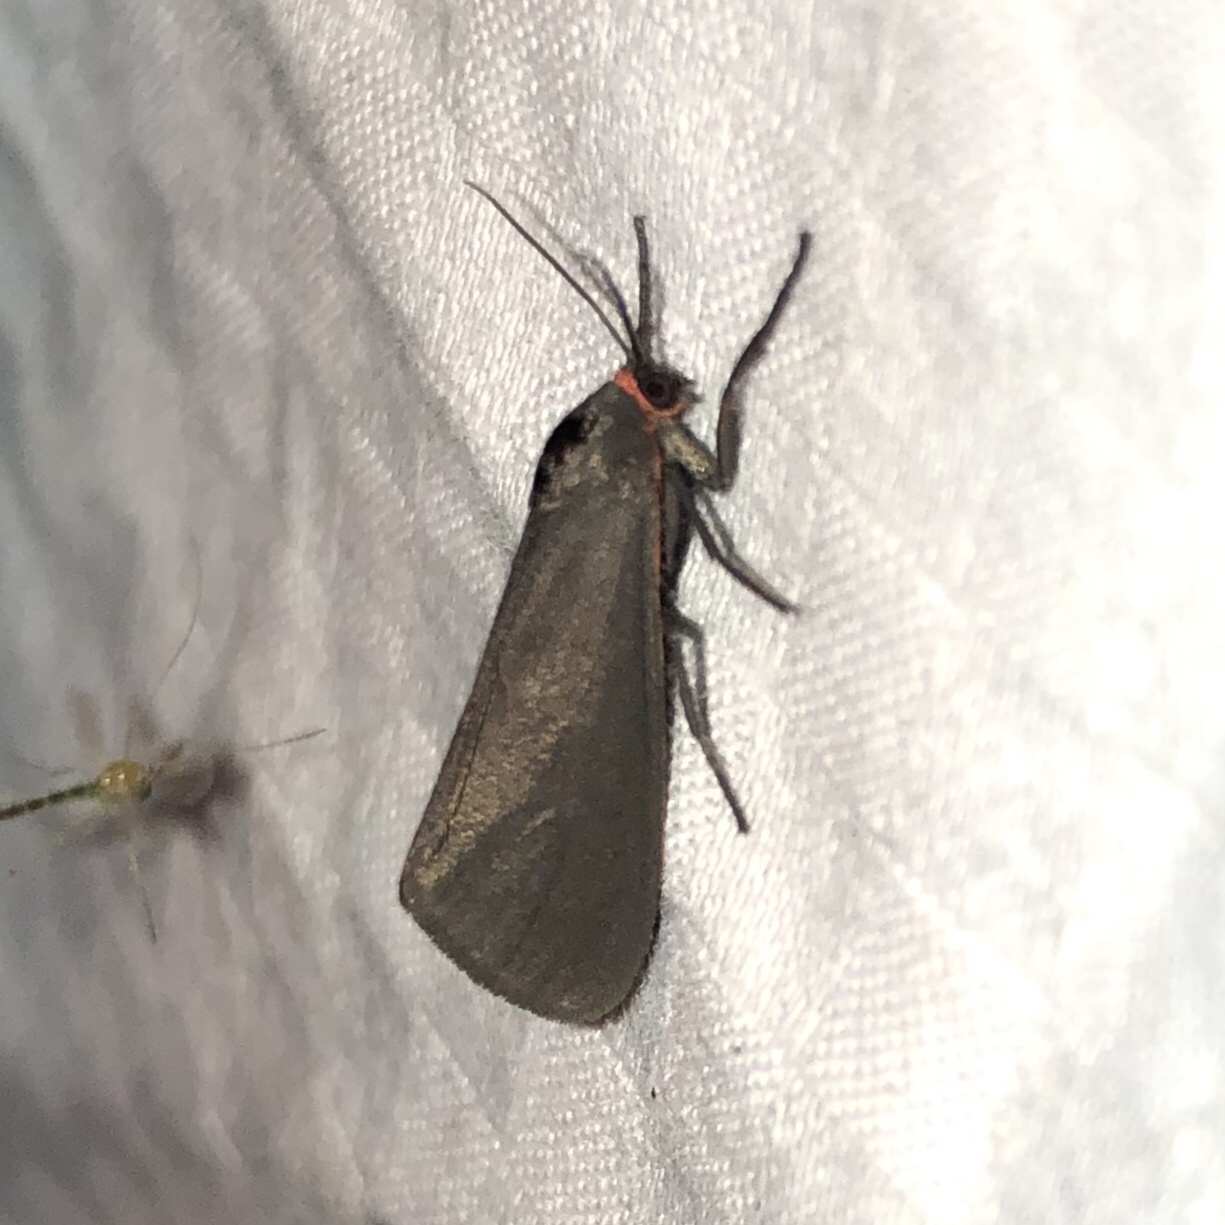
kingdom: Animalia
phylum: Arthropoda
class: Insecta
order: Lepidoptera
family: Erebidae
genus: Virbia
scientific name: Virbia laeta
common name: Joyful holomelina moth
